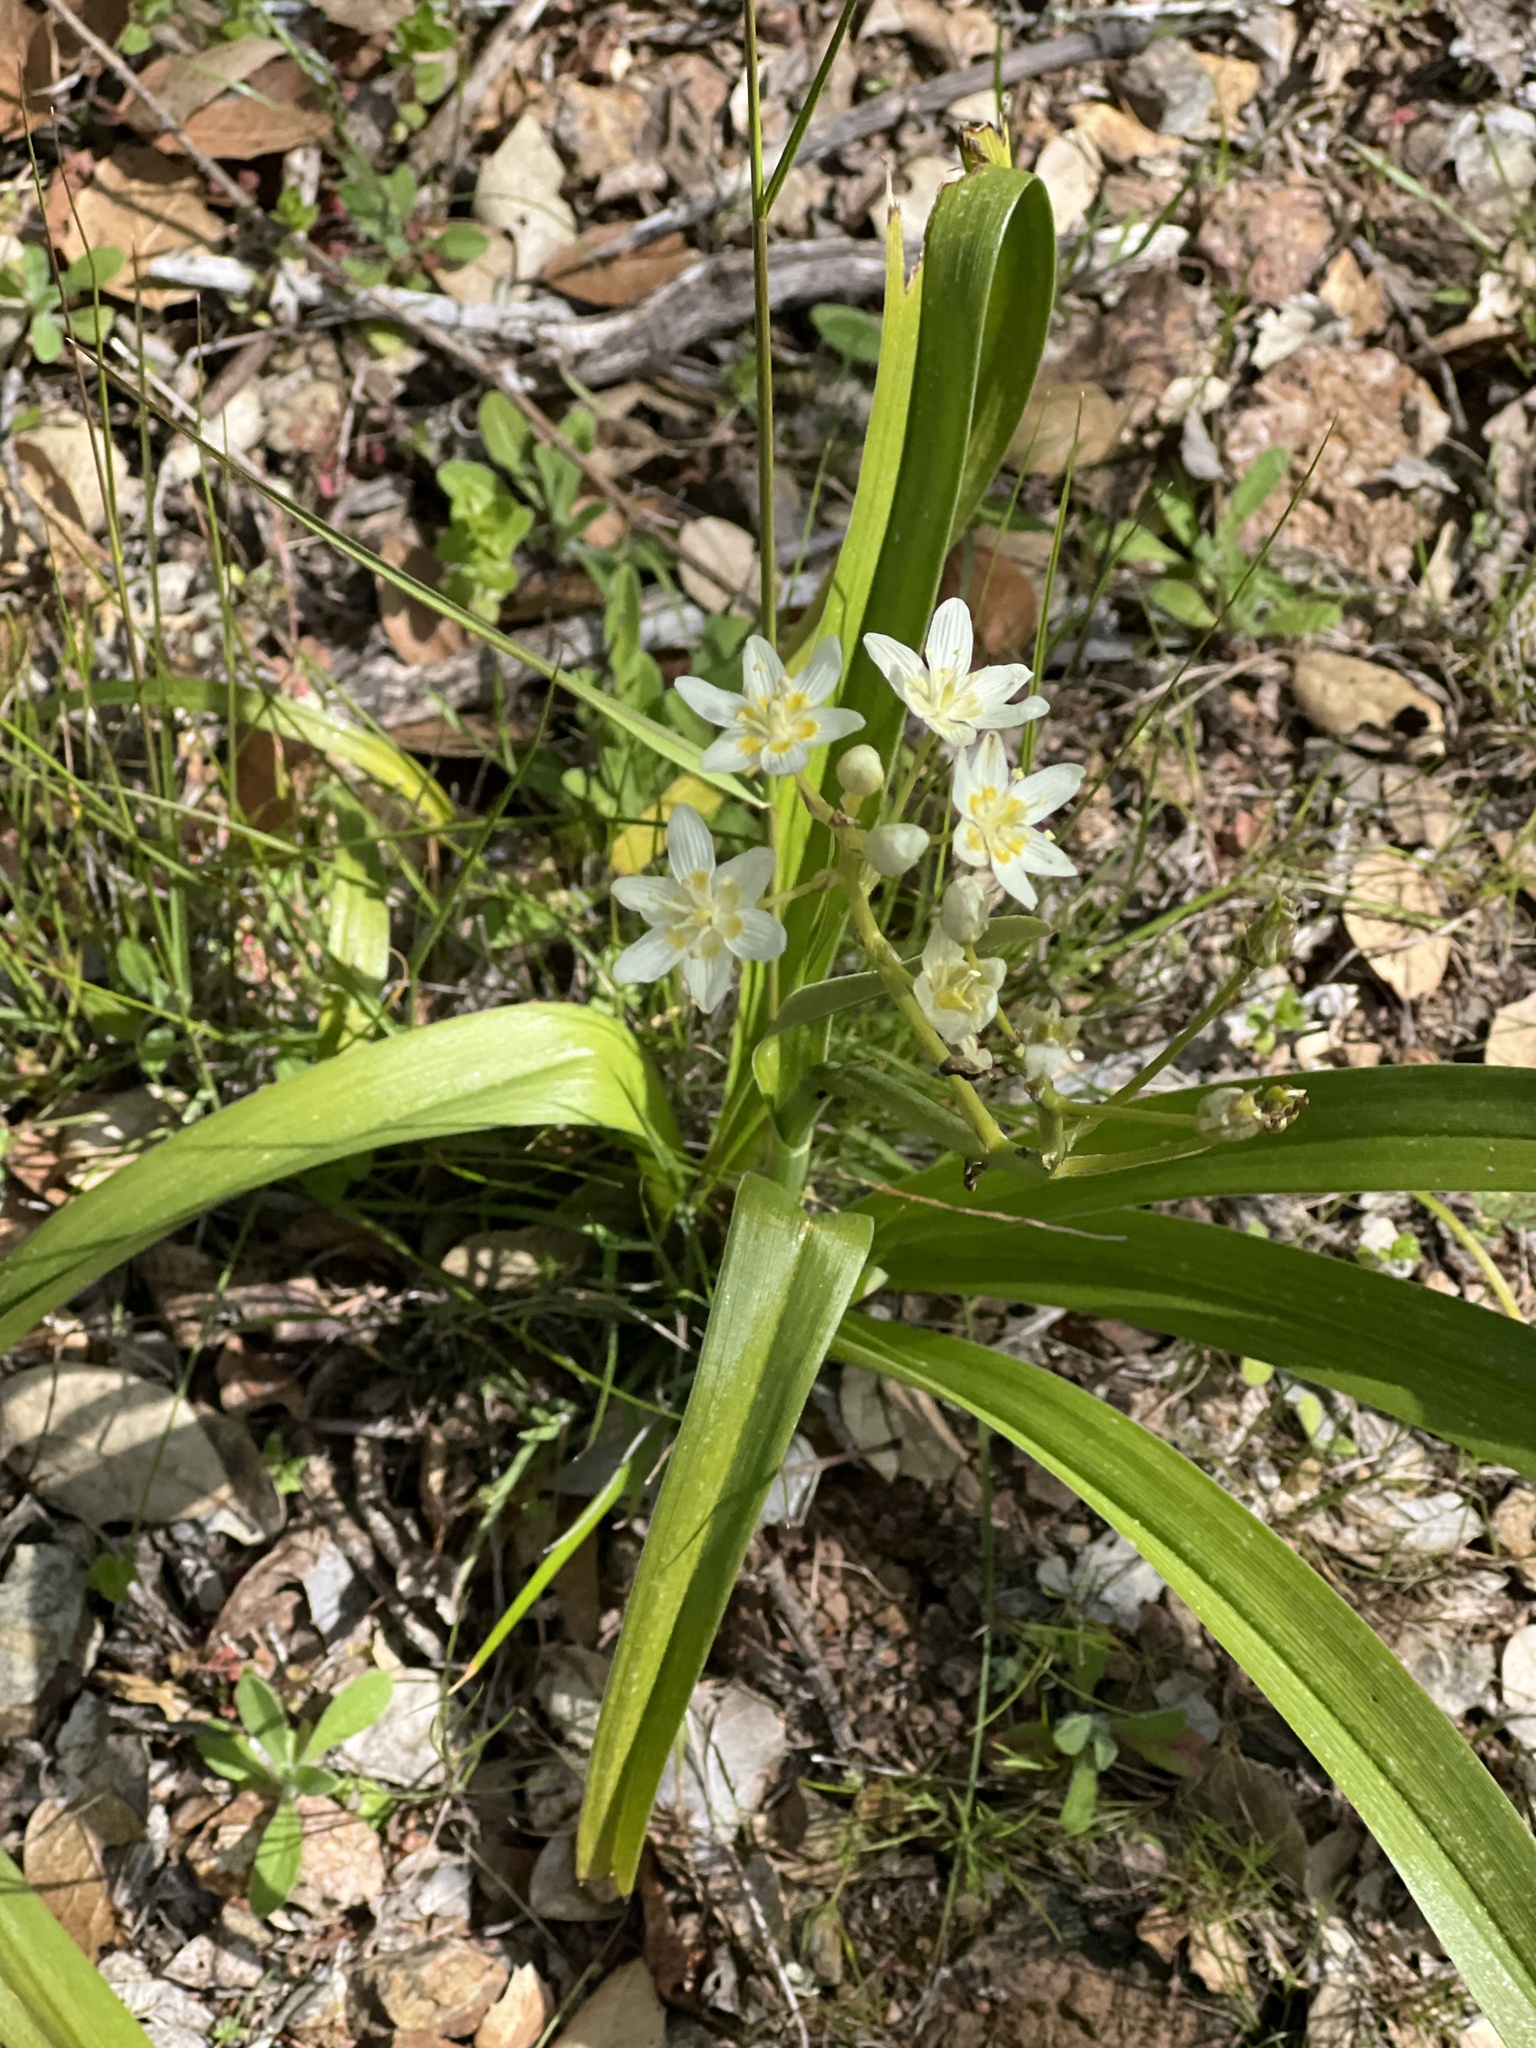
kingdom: Plantae
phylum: Tracheophyta
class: Liliopsida
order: Liliales
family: Melanthiaceae
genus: Toxicoscordion
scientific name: Toxicoscordion fremontii
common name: Fremont's death camas
